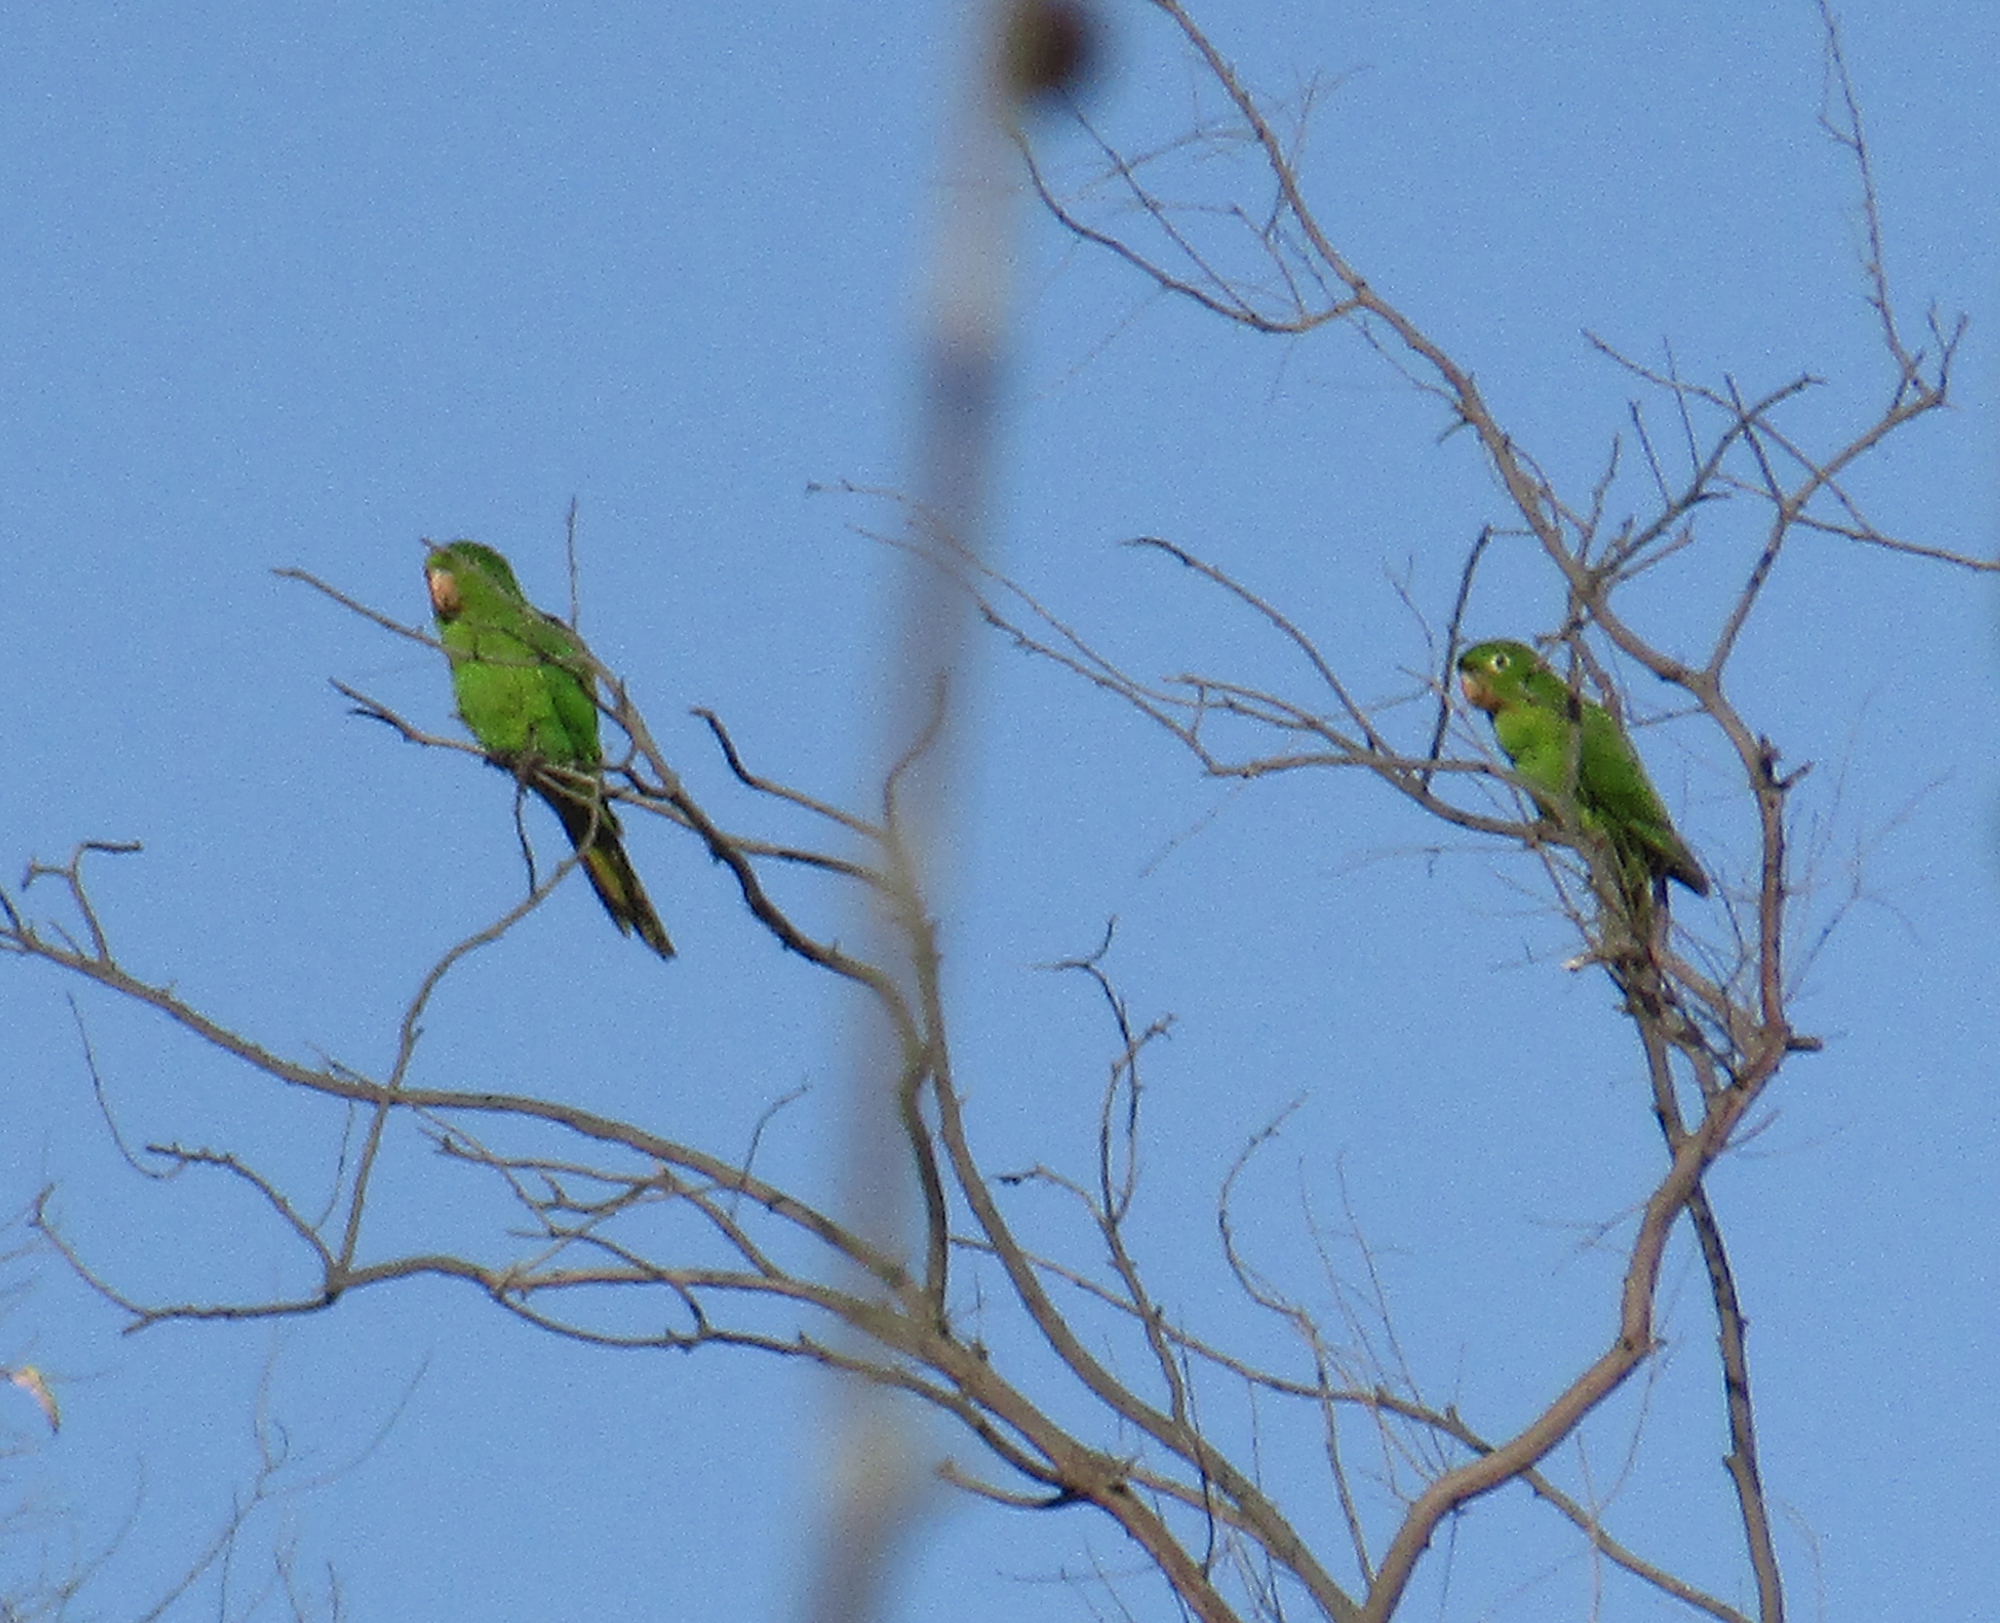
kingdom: Animalia
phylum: Chordata
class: Aves
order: Psittaciformes
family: Psittacidae
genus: Aratinga
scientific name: Aratinga leucophthalma
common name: White-eyed parakeet
